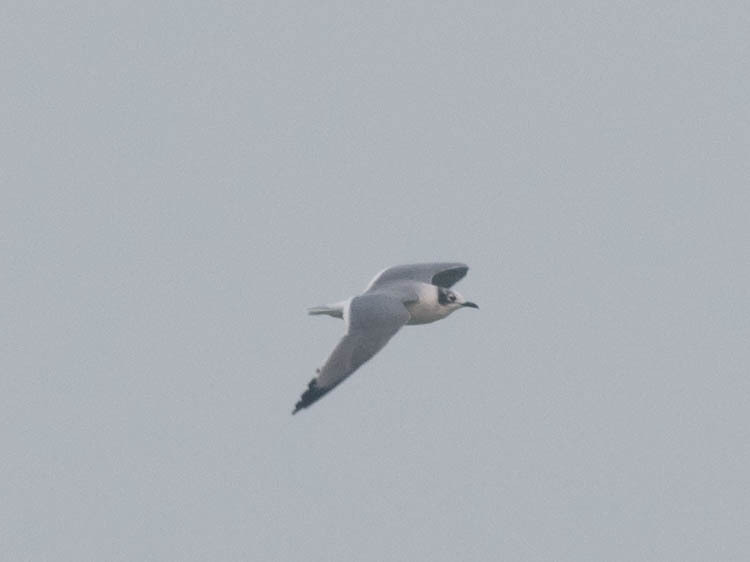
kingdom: Animalia
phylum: Chordata
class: Aves
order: Charadriiformes
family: Laridae
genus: Leucophaeus
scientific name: Leucophaeus pipixcan
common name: Franklin's gull
